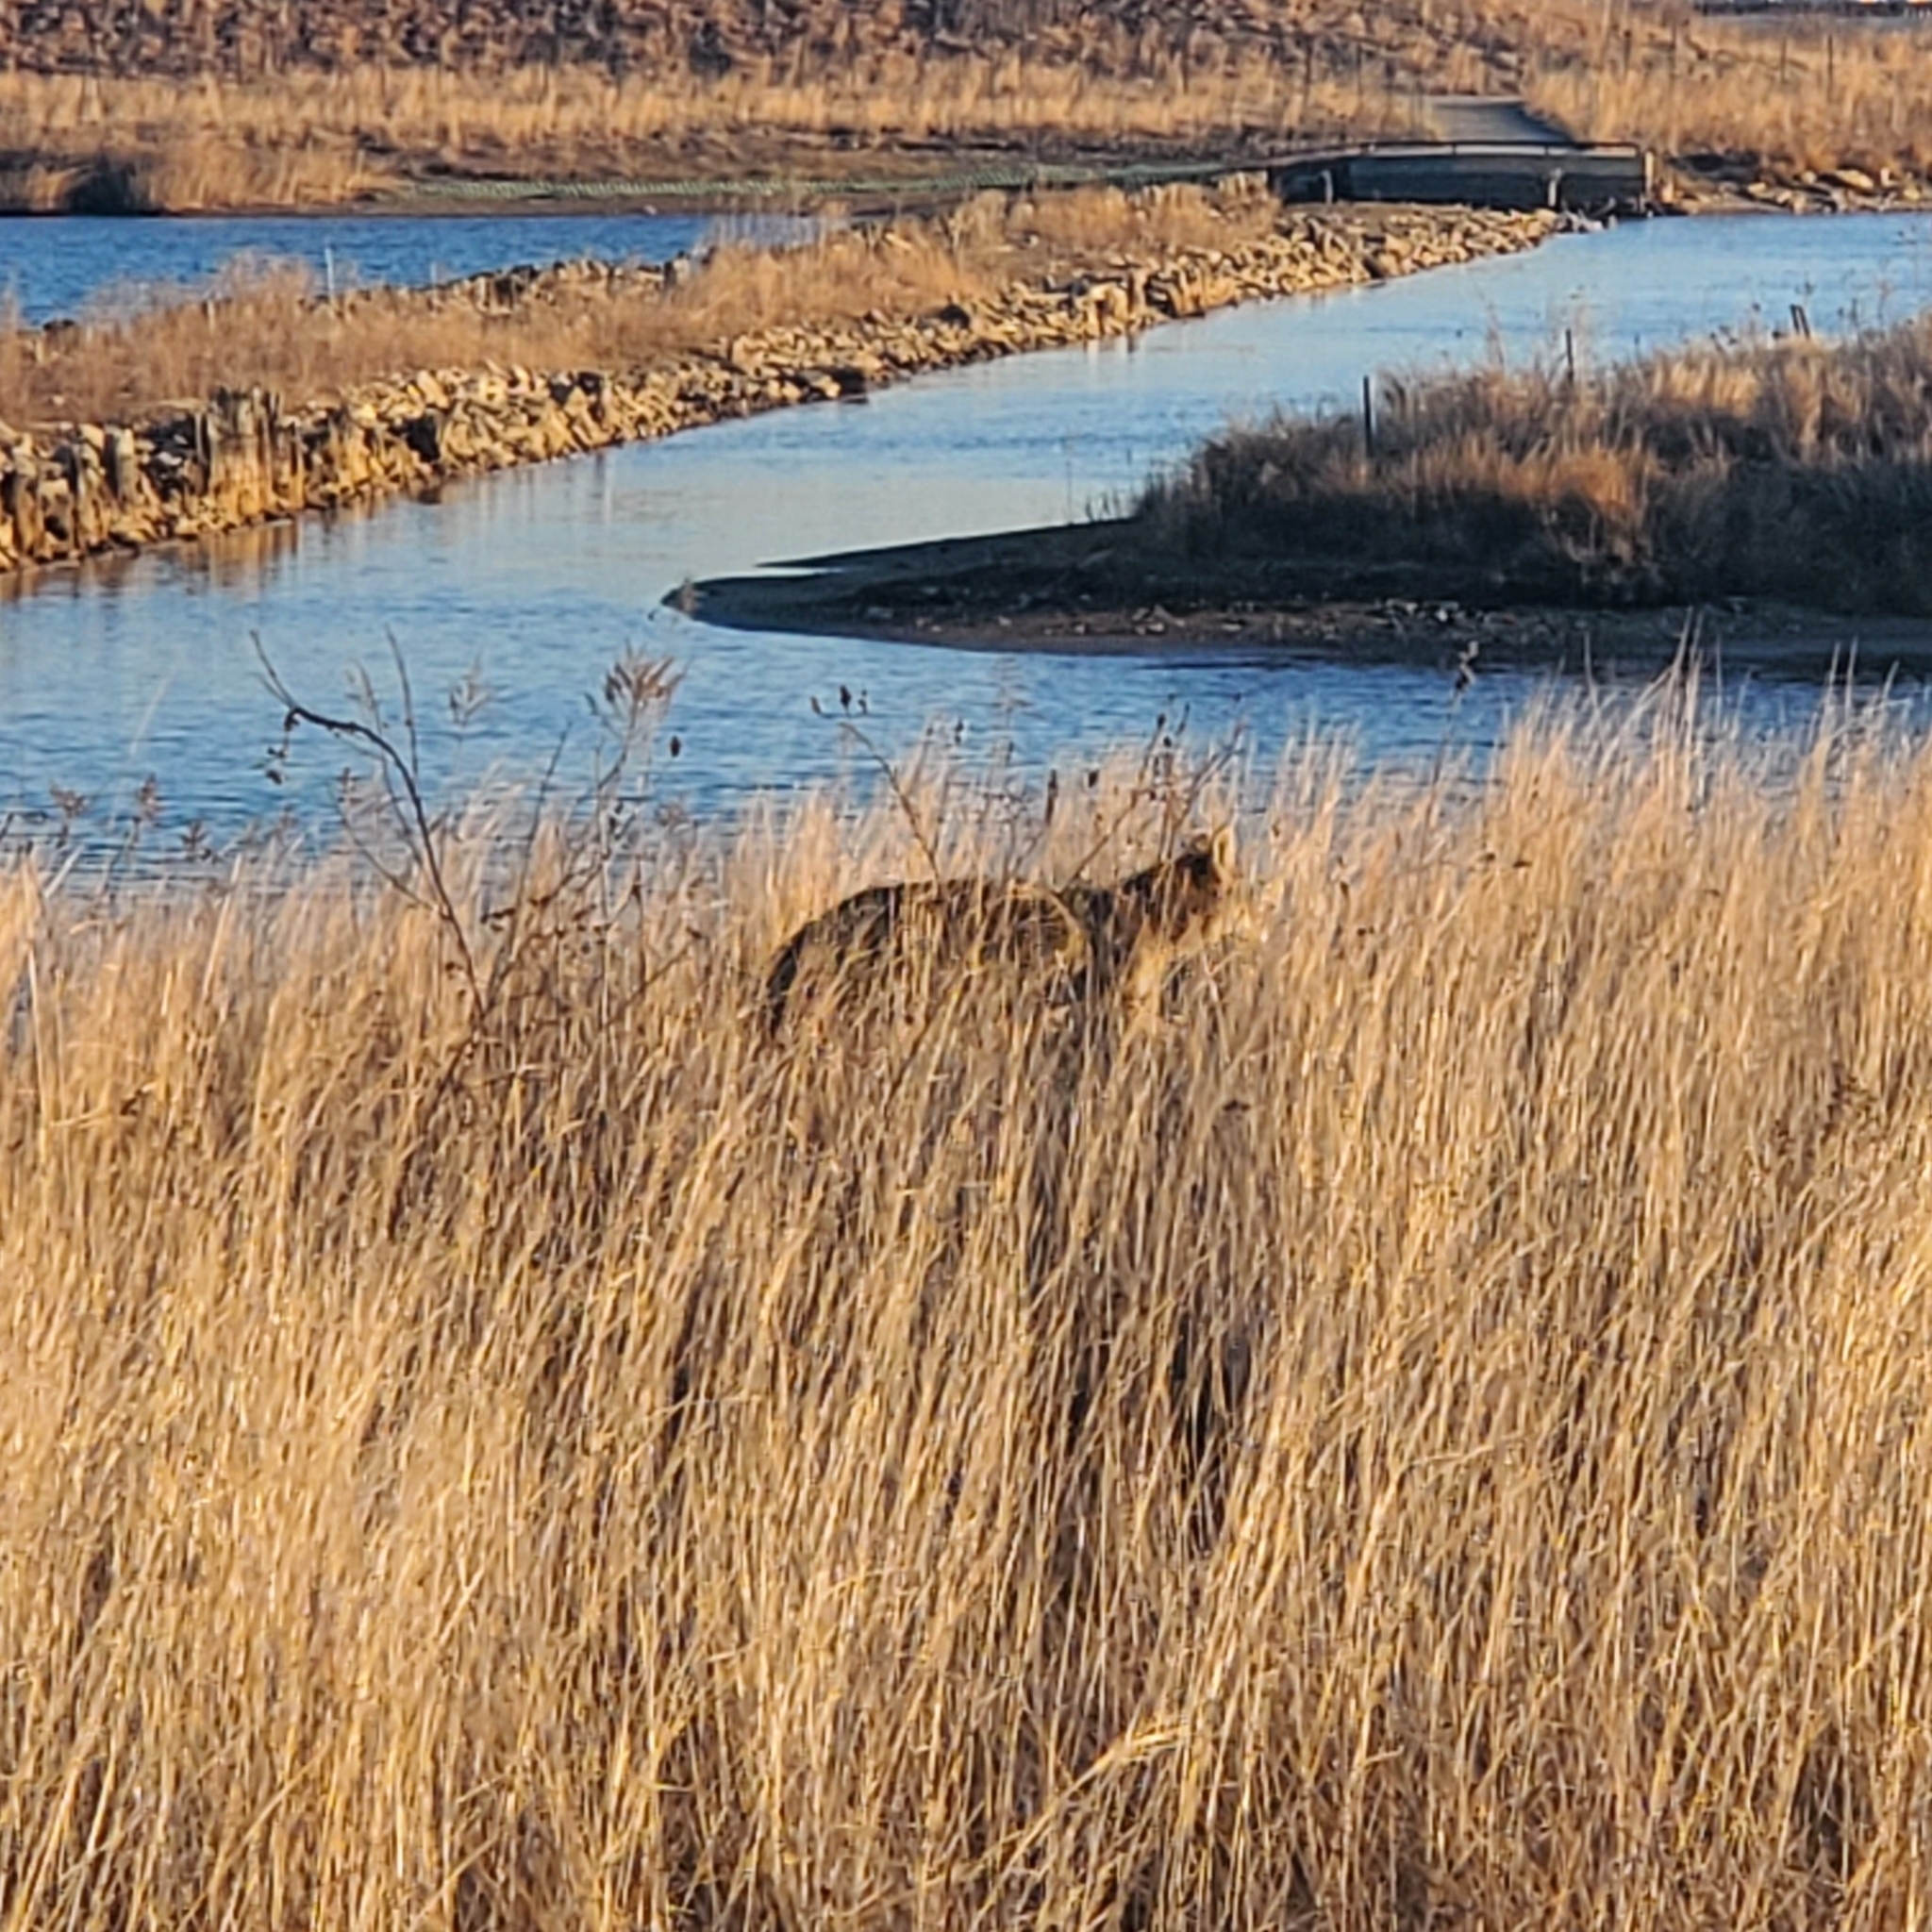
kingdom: Animalia
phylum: Chordata
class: Mammalia
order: Carnivora
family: Canidae
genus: Canis
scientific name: Canis latrans
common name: Coyote
